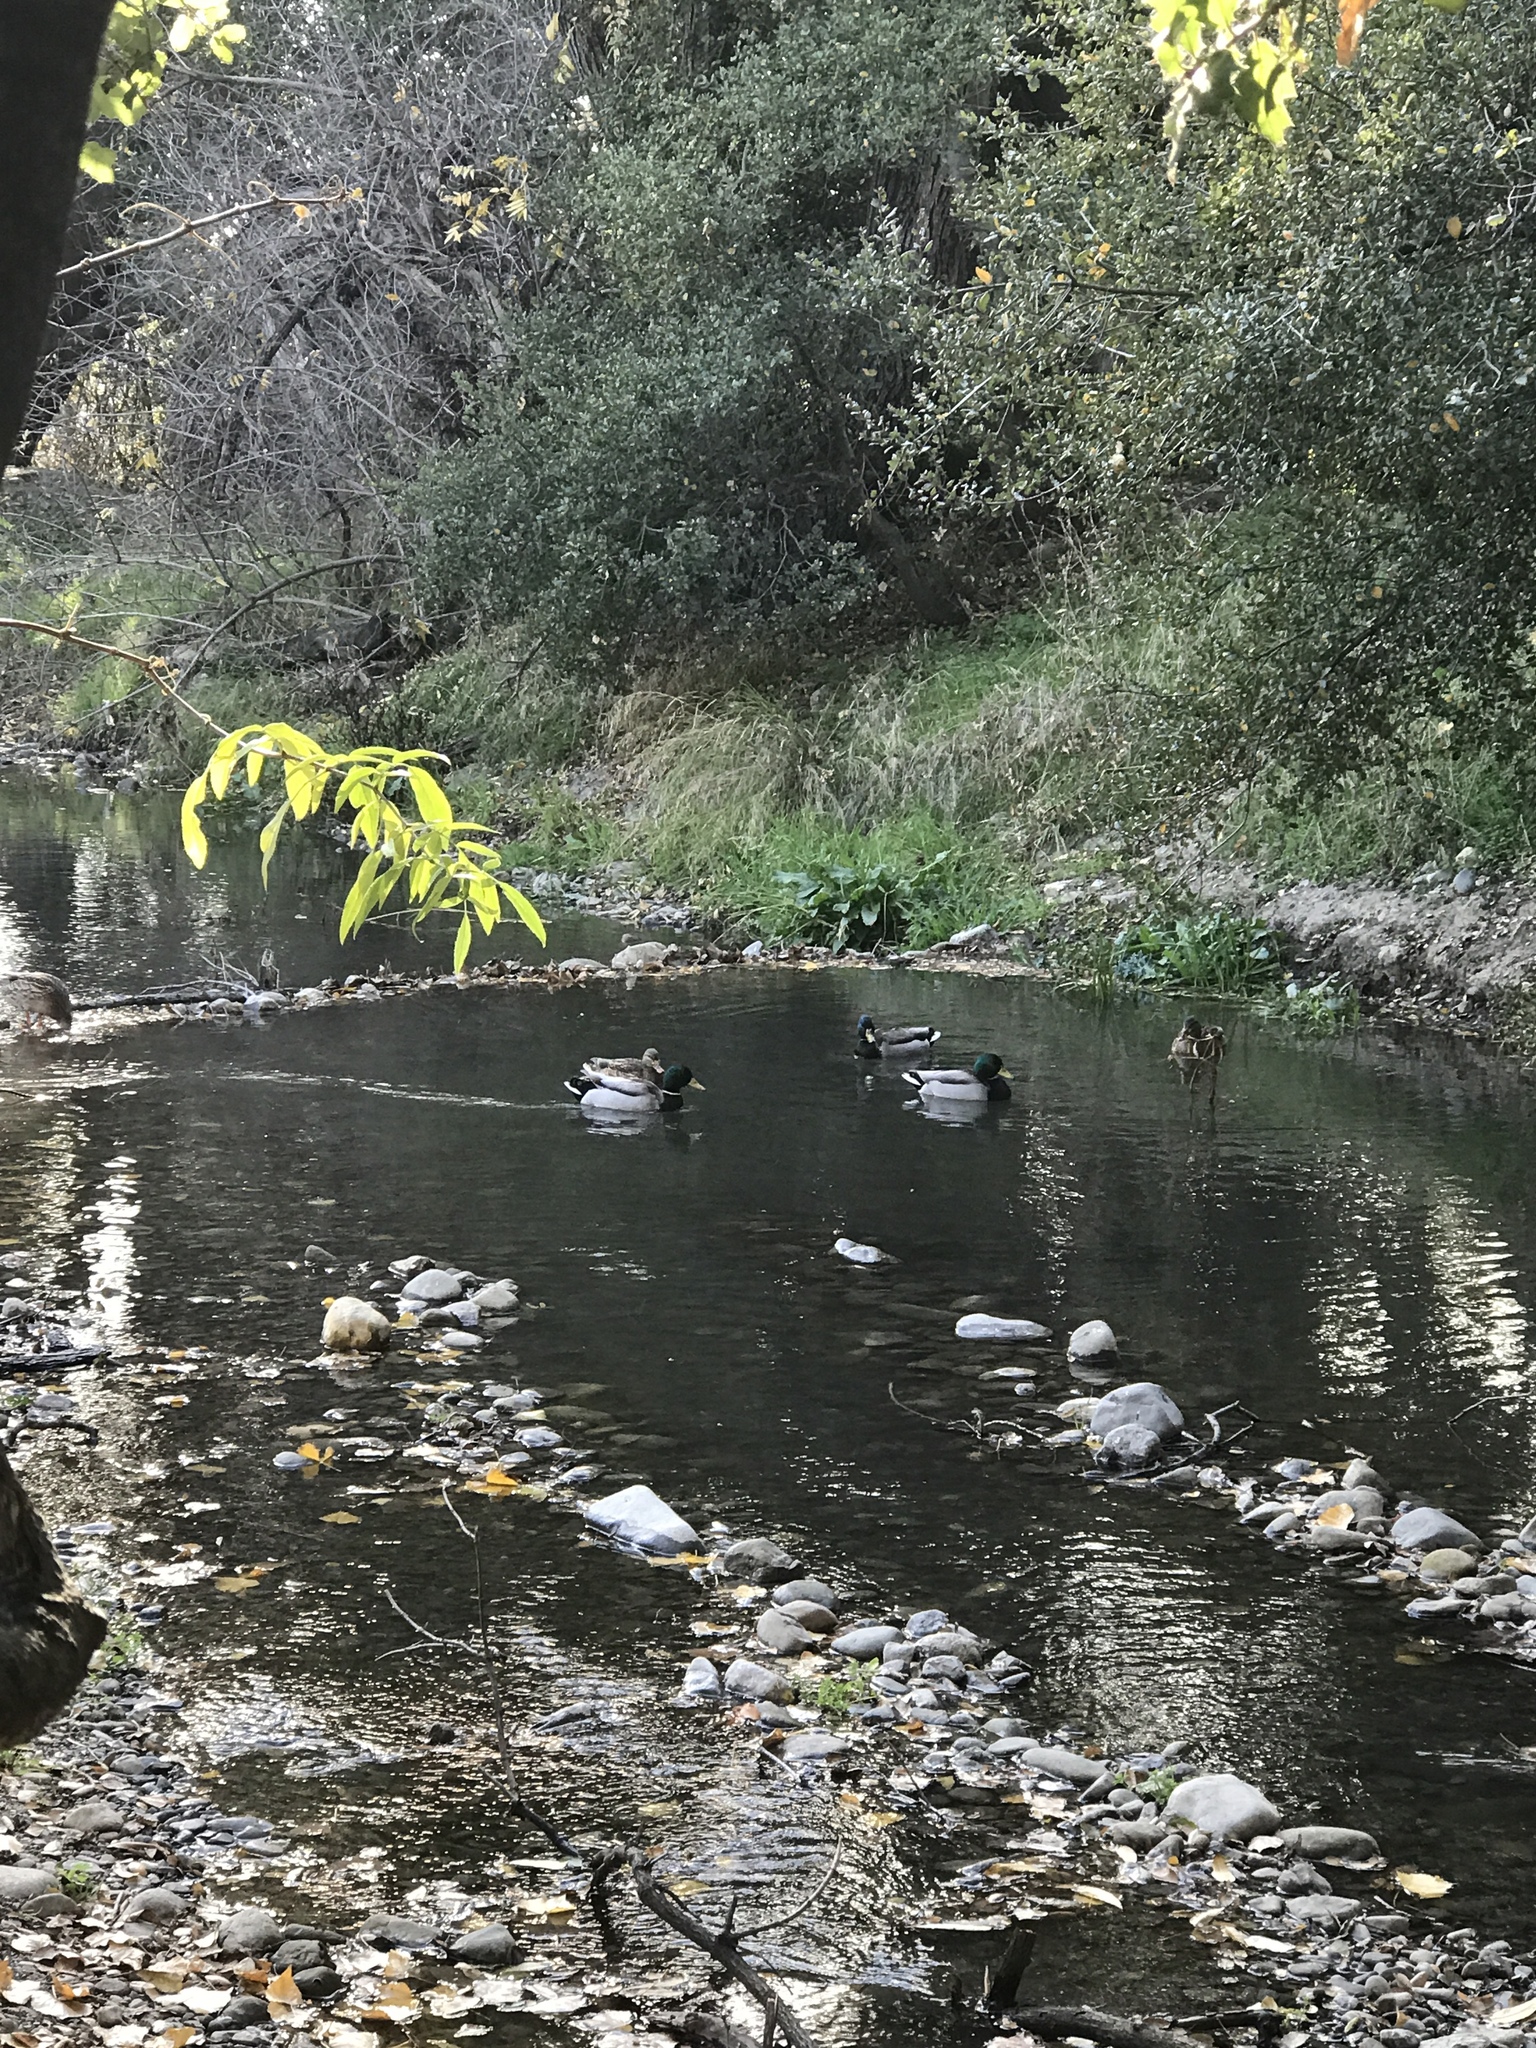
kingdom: Animalia
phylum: Chordata
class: Aves
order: Anseriformes
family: Anatidae
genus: Anas
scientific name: Anas platyrhynchos
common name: Mallard
